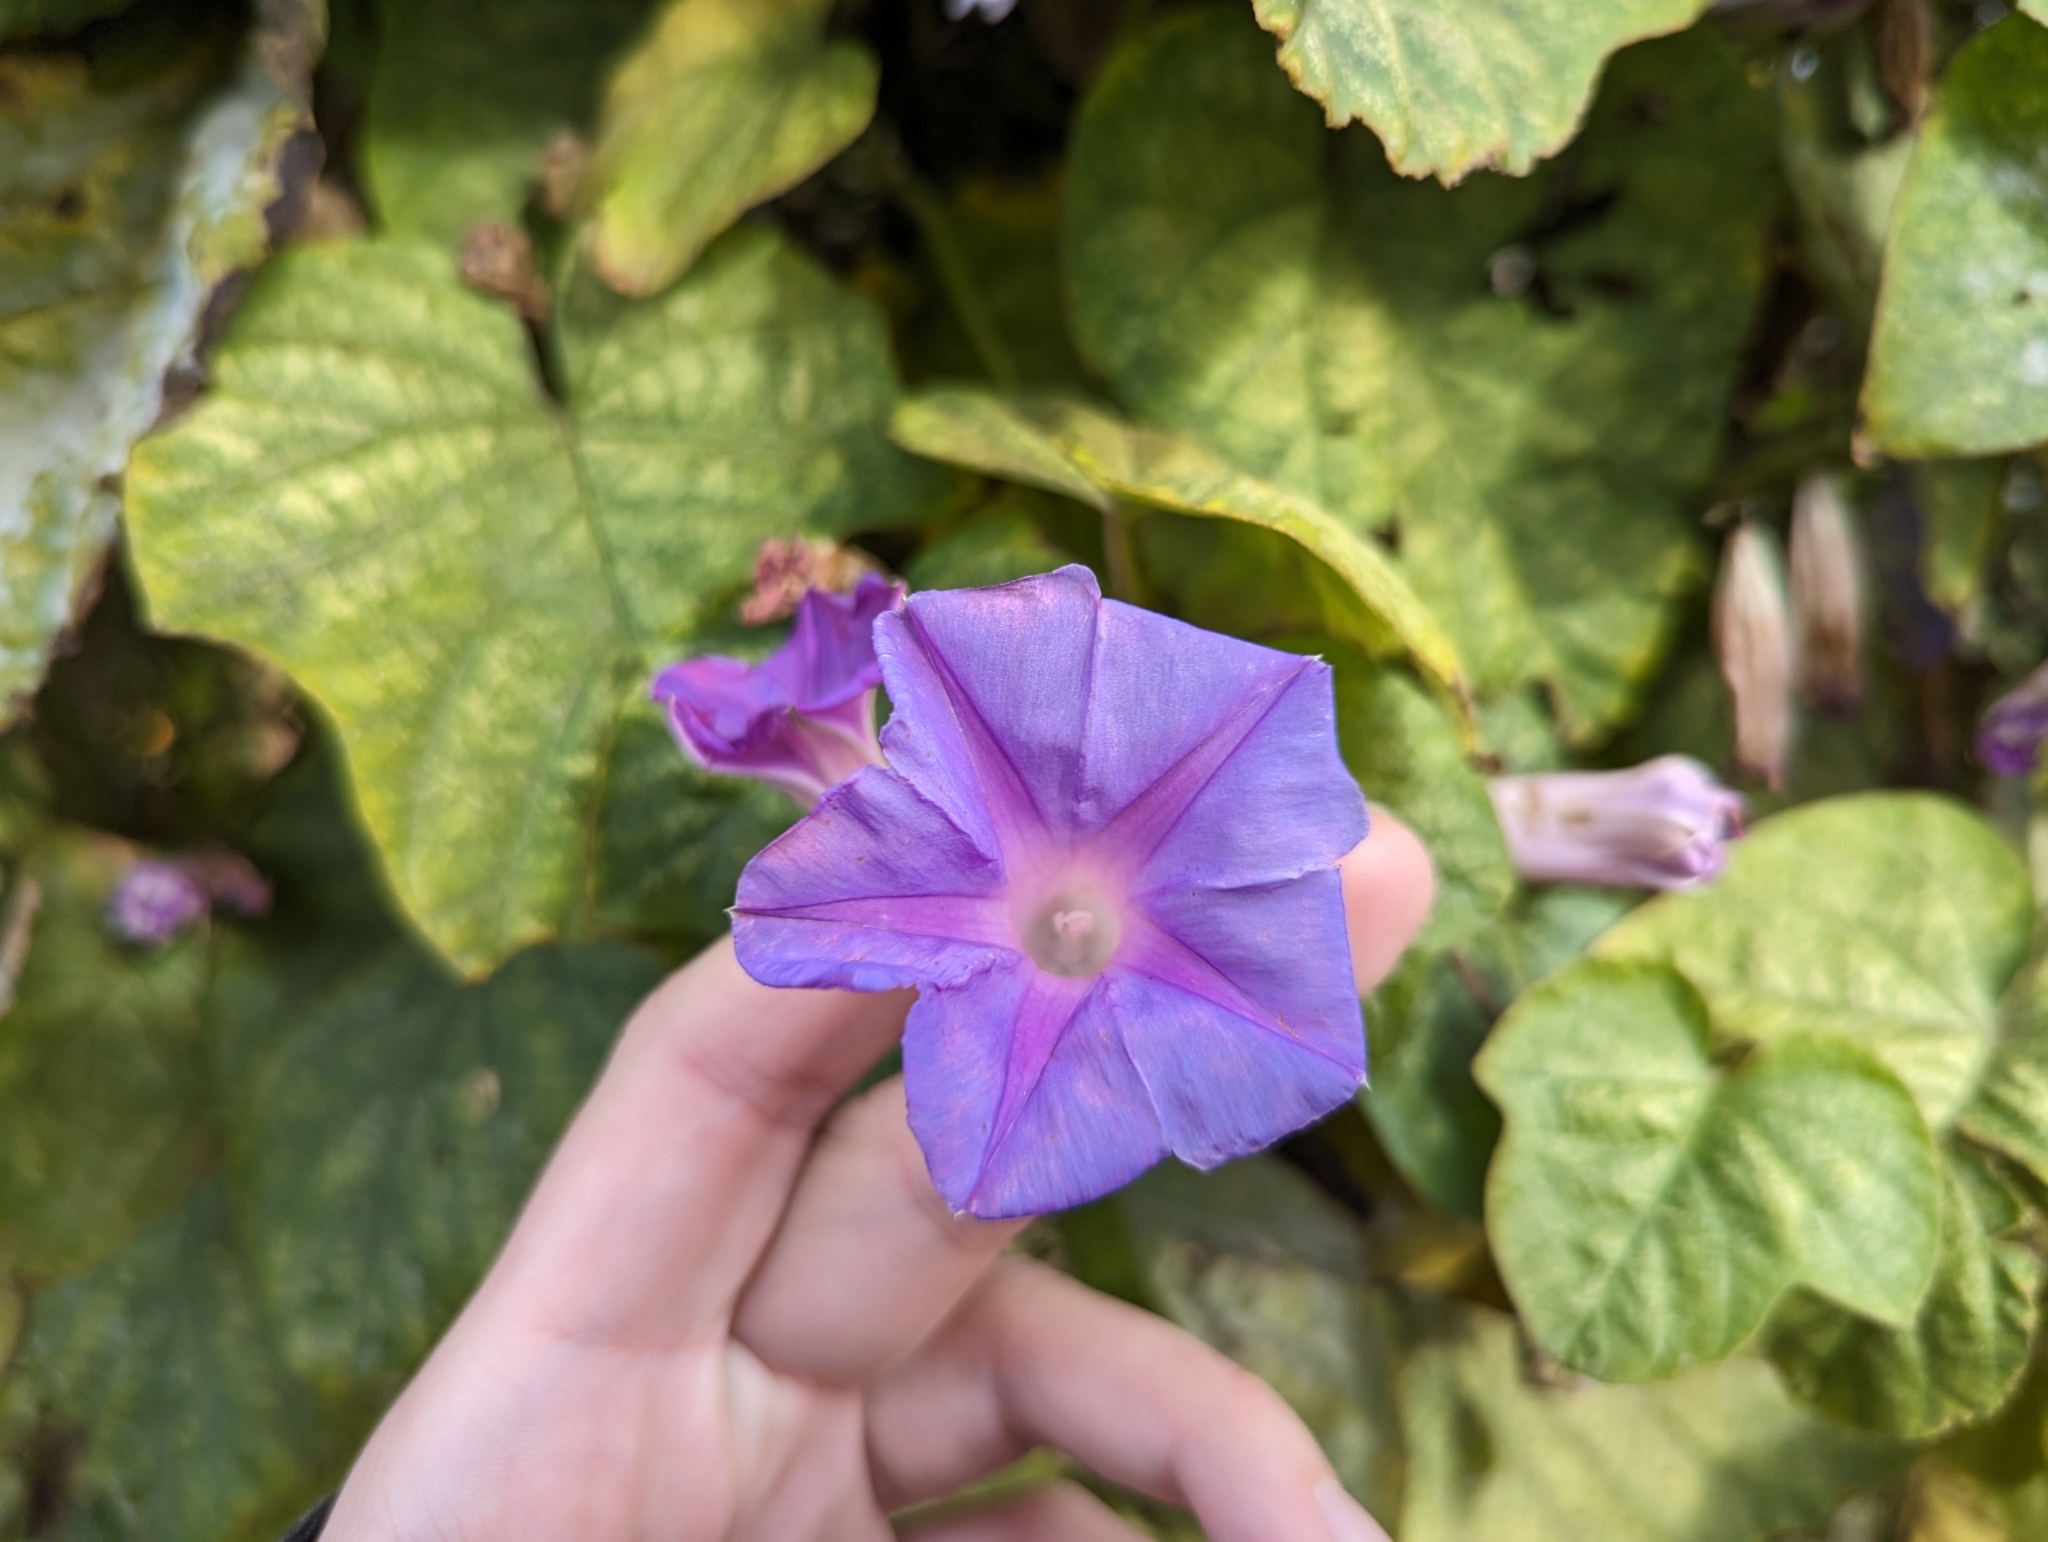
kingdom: Plantae
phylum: Tracheophyta
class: Magnoliopsida
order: Solanales
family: Convolvulaceae
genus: Ipomoea
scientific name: Ipomoea indica
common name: Blue dawnflower
